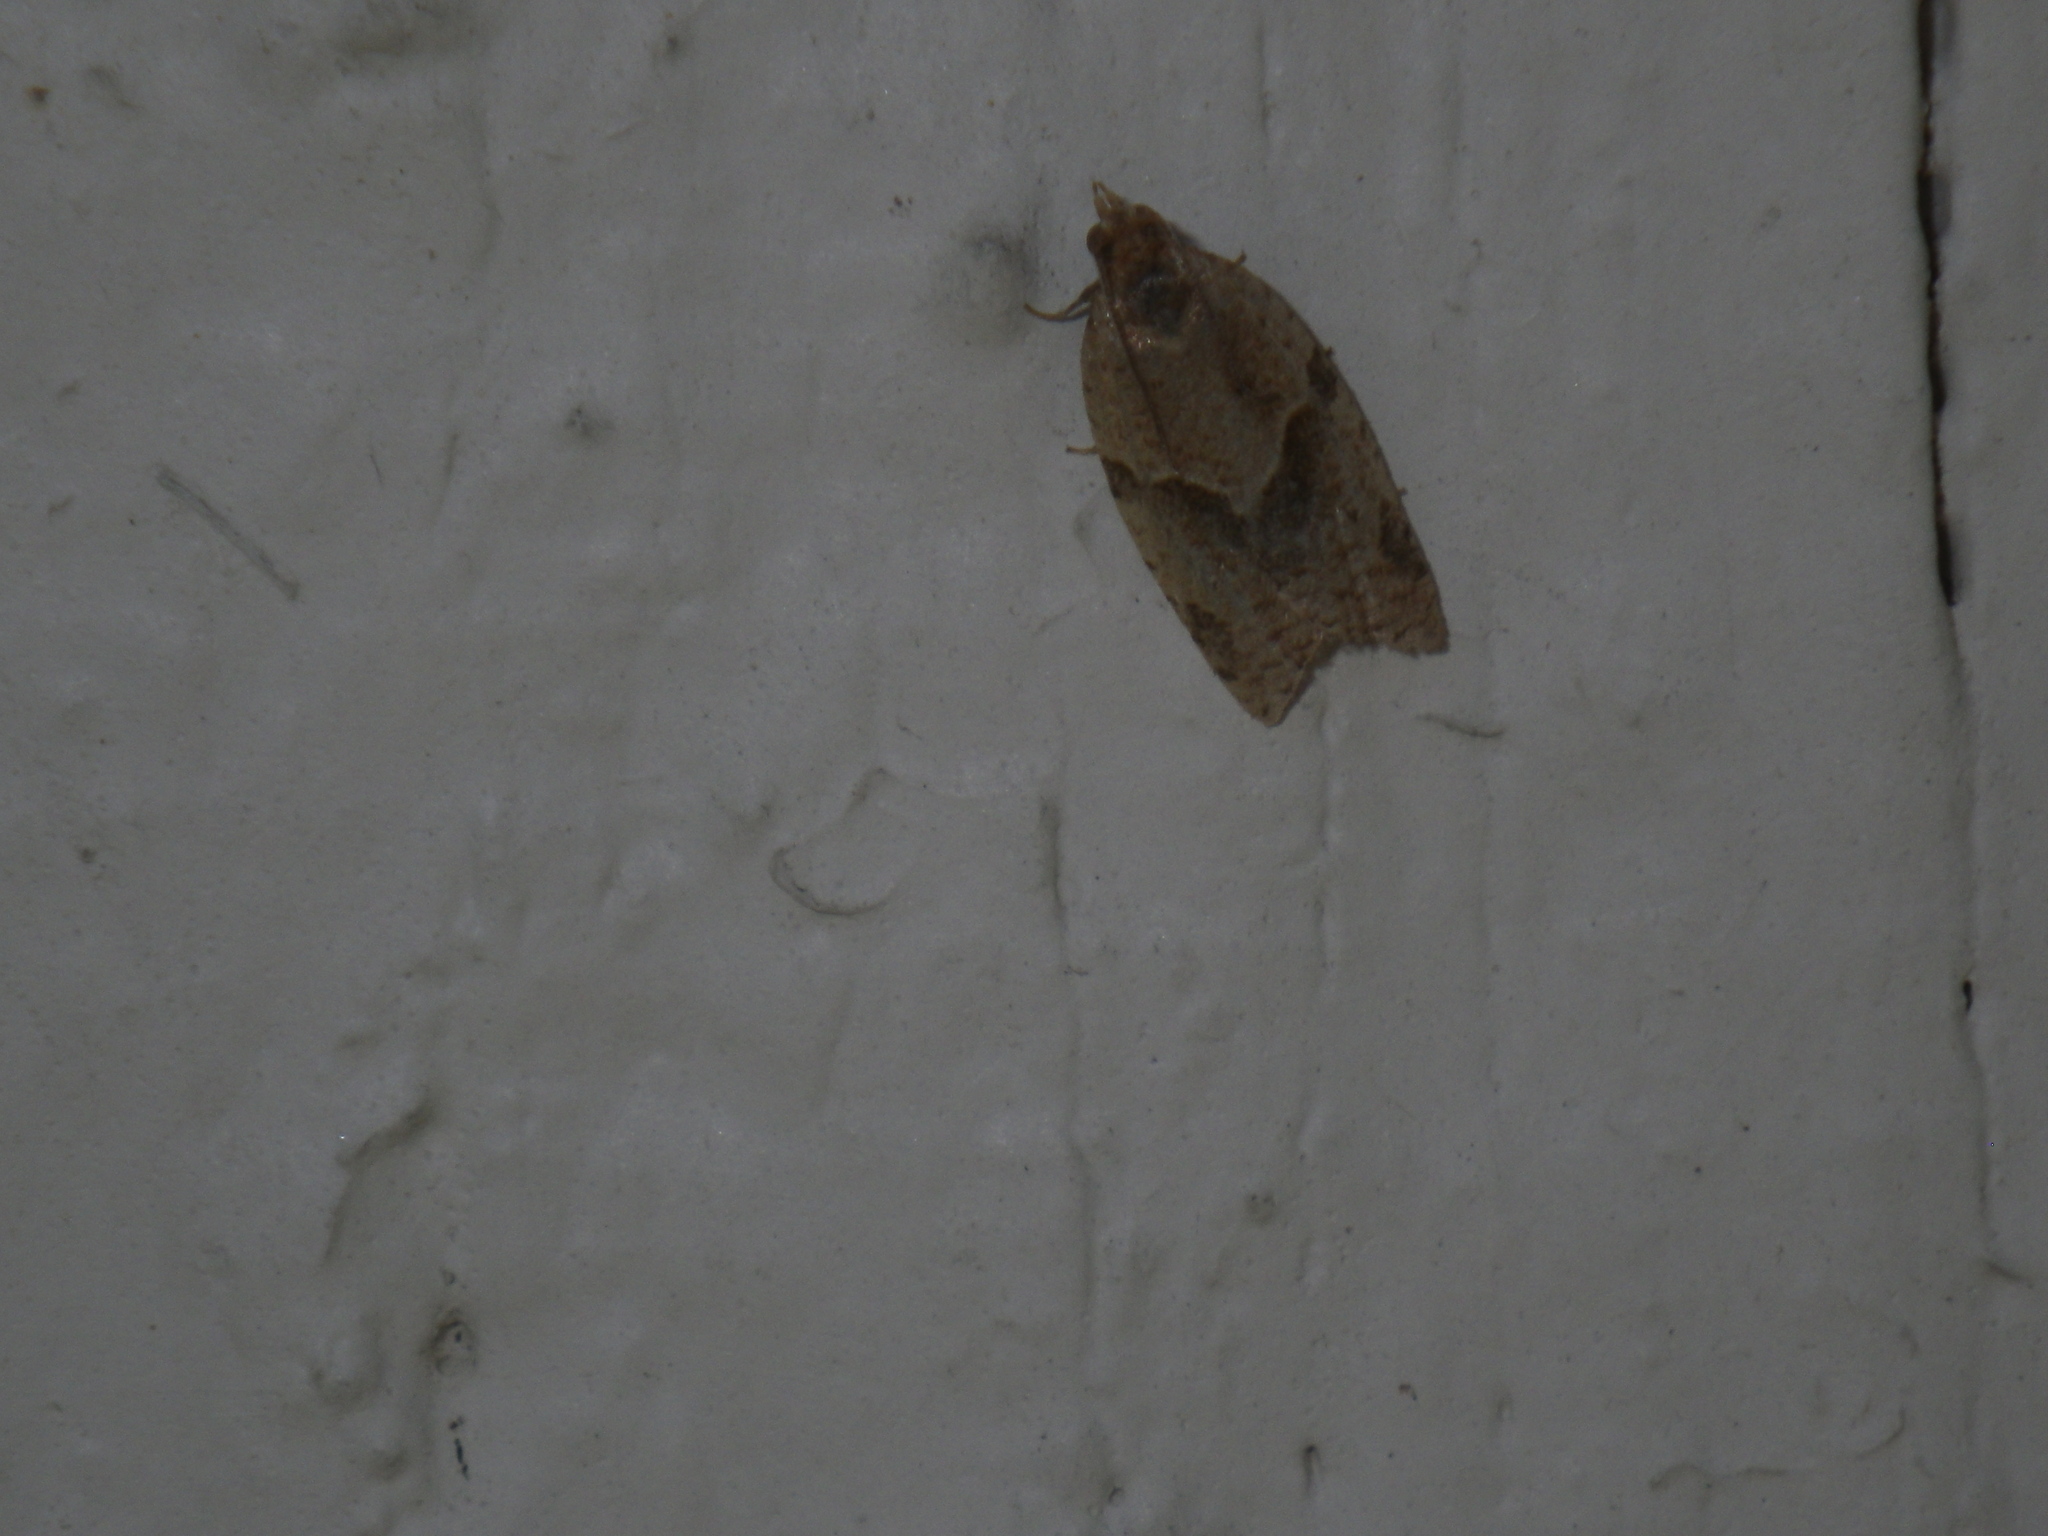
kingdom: Animalia
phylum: Arthropoda
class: Insecta
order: Lepidoptera
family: Tortricidae
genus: Clepsis
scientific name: Clepsis peritana
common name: Garden tortrix
